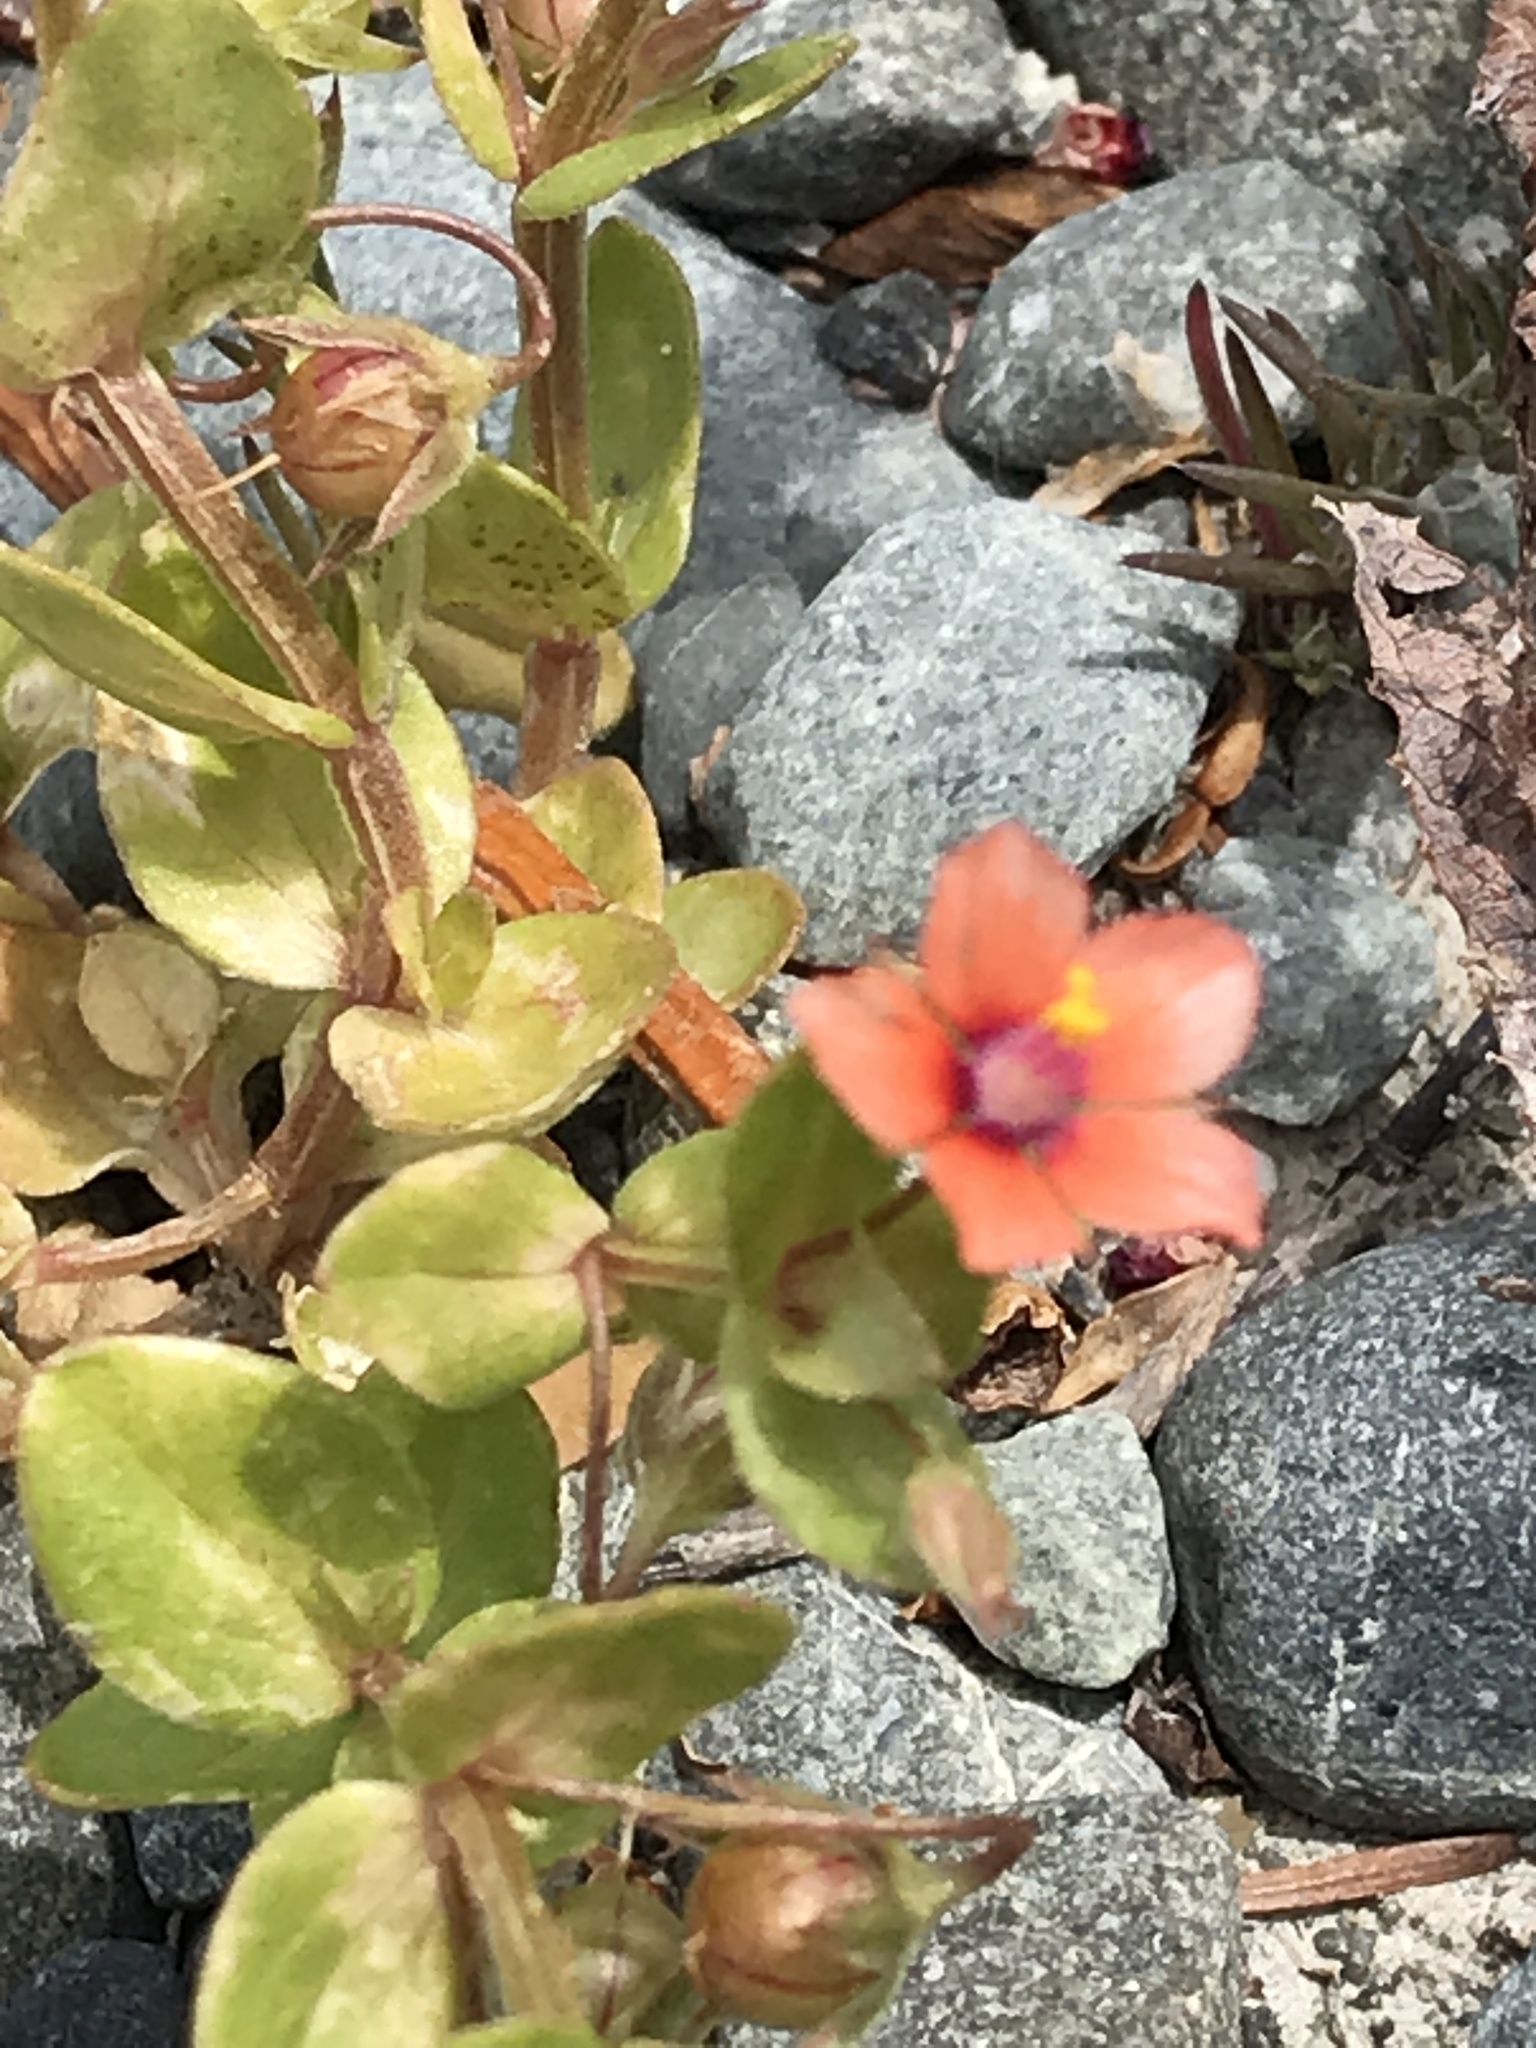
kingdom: Plantae
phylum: Tracheophyta
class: Magnoliopsida
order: Ericales
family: Primulaceae
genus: Lysimachia
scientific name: Lysimachia arvensis
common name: Scarlet pimpernel
